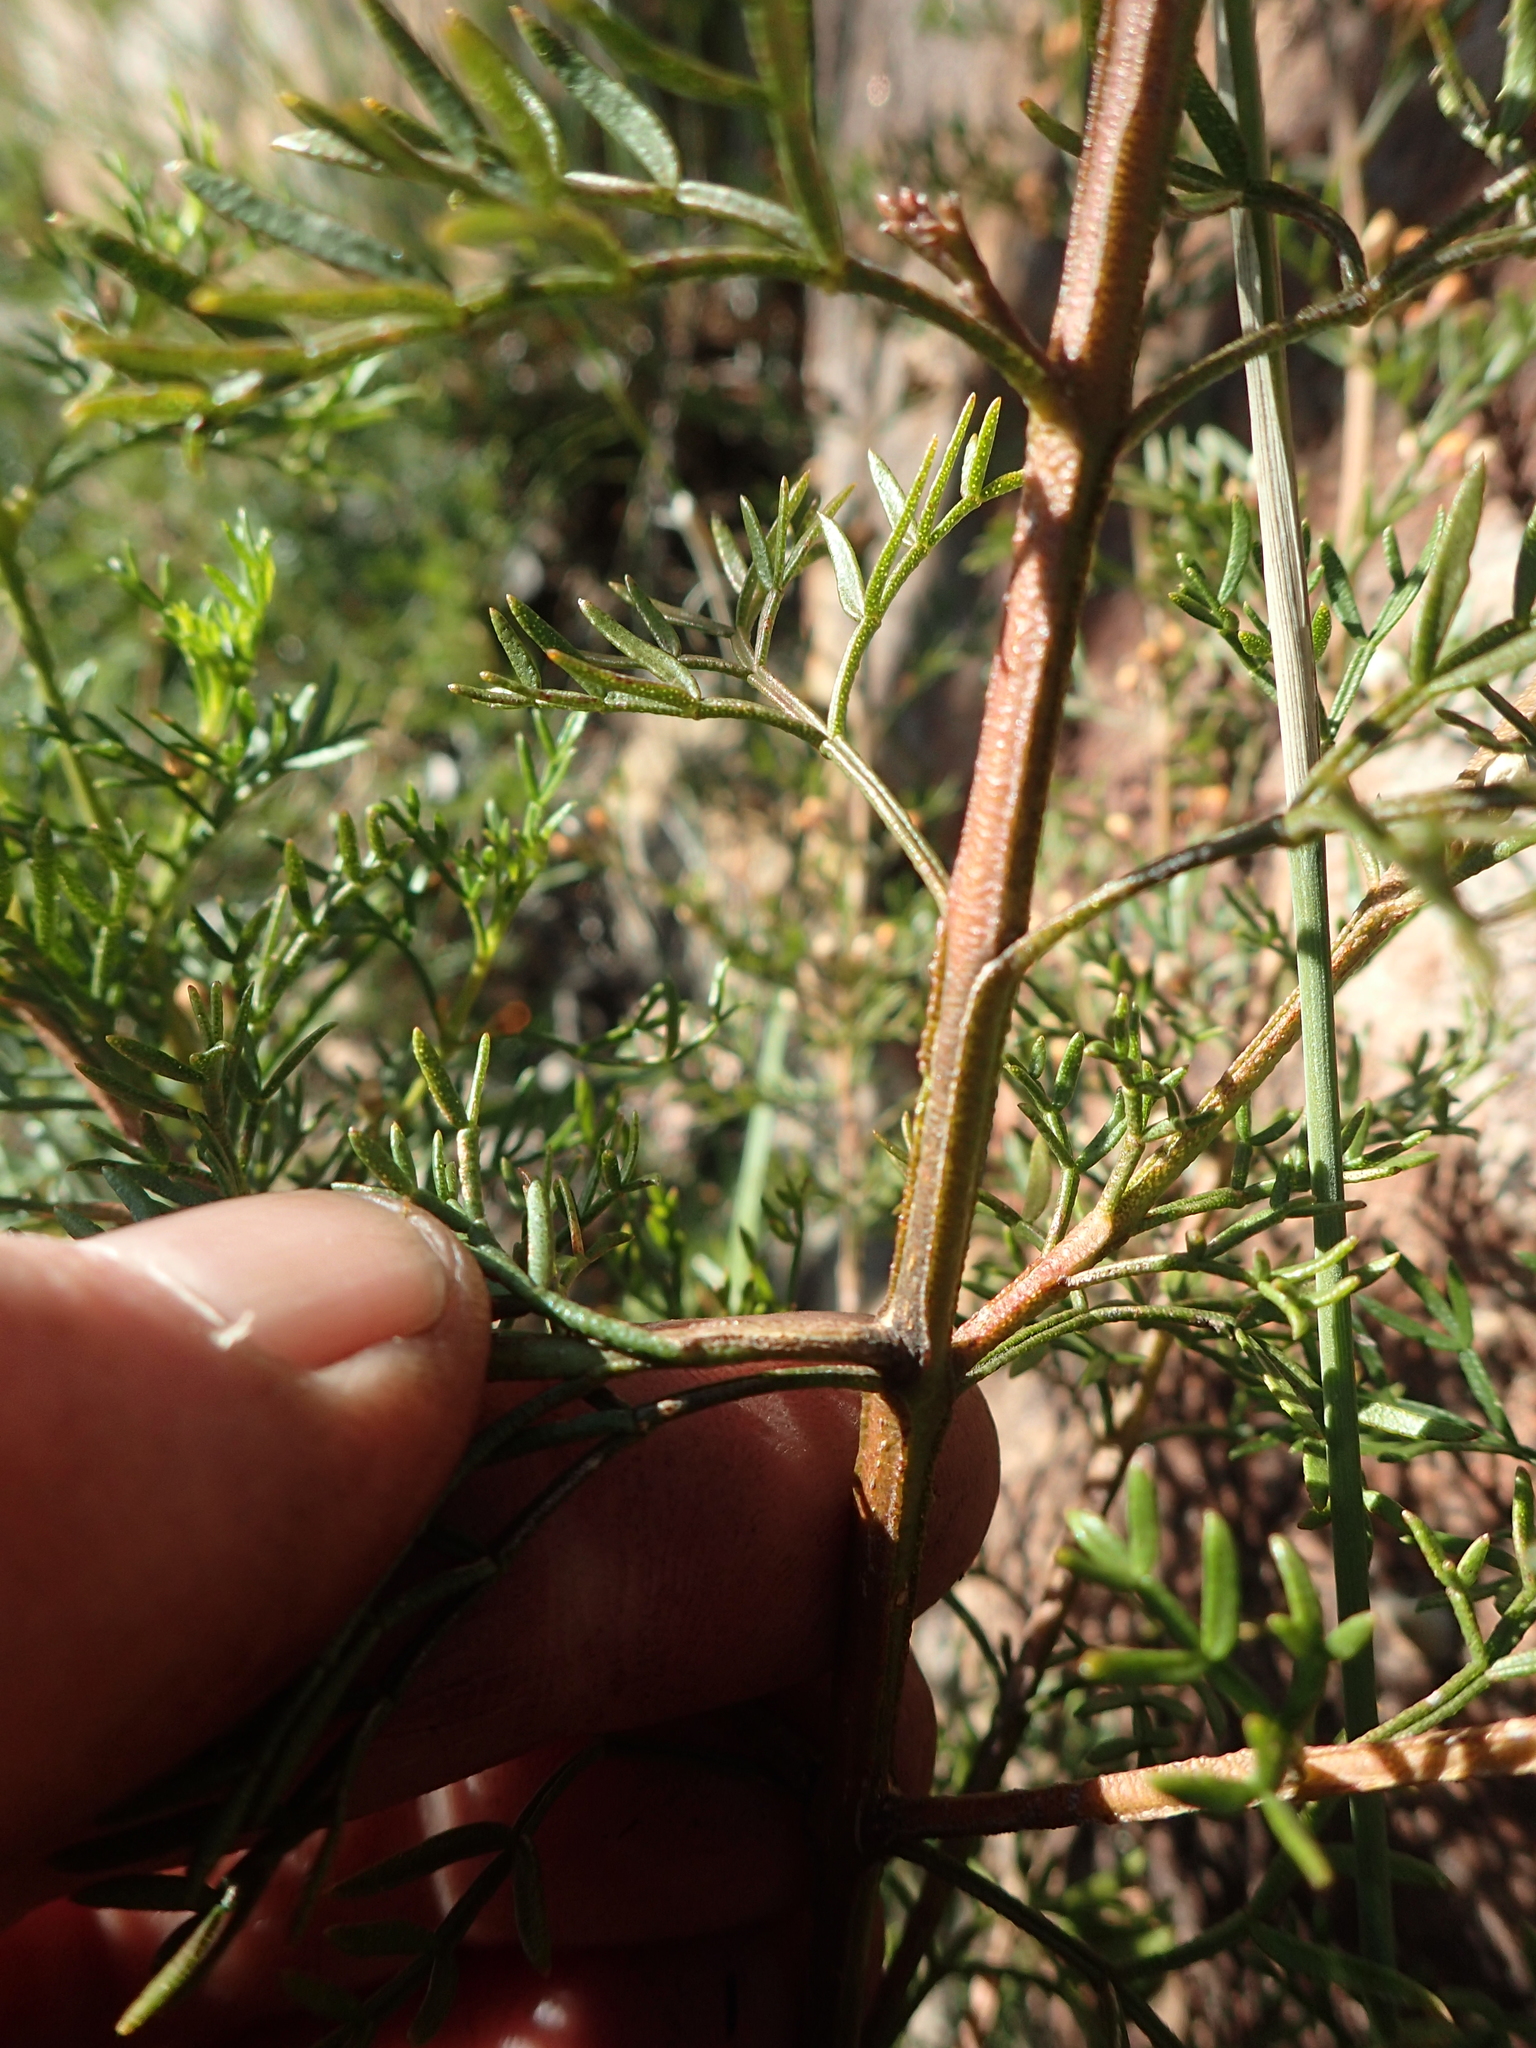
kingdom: Plantae
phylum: Tracheophyta
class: Magnoliopsida
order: Sapindales
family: Rutaceae
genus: Cyanothamnus
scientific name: Cyanothamnus quadrangulus
